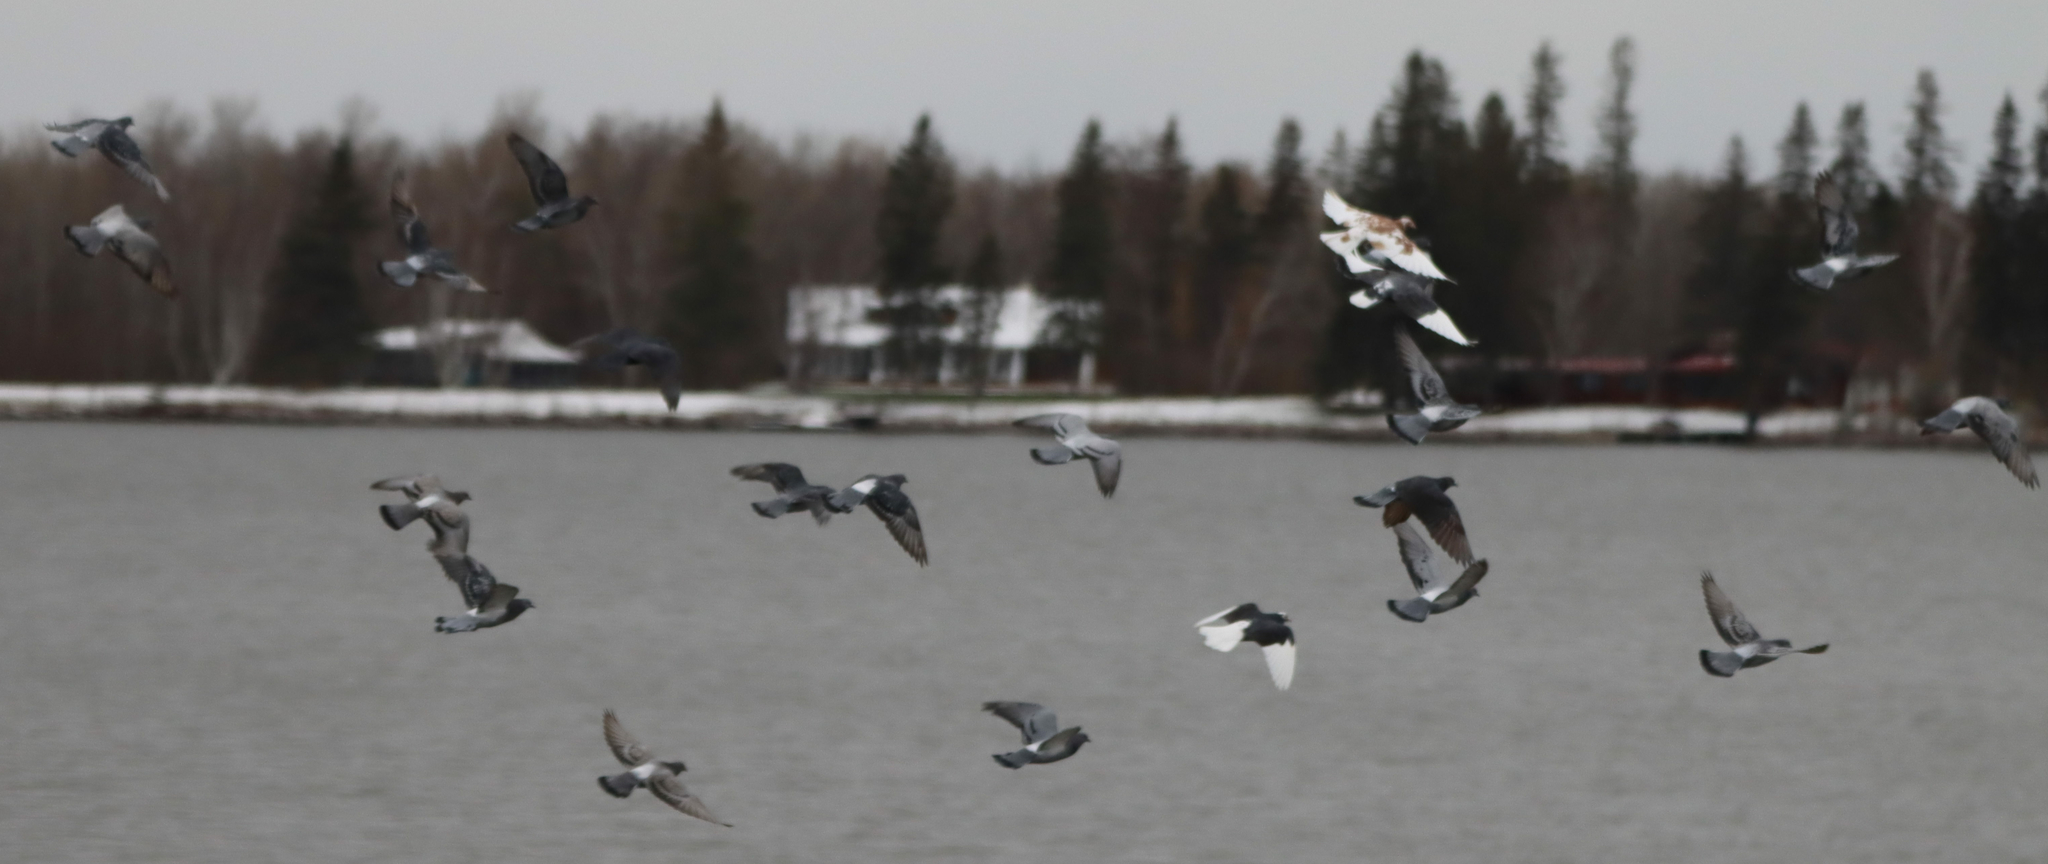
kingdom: Animalia
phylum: Chordata
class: Aves
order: Columbiformes
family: Columbidae
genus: Columba
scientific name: Columba livia
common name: Rock pigeon
